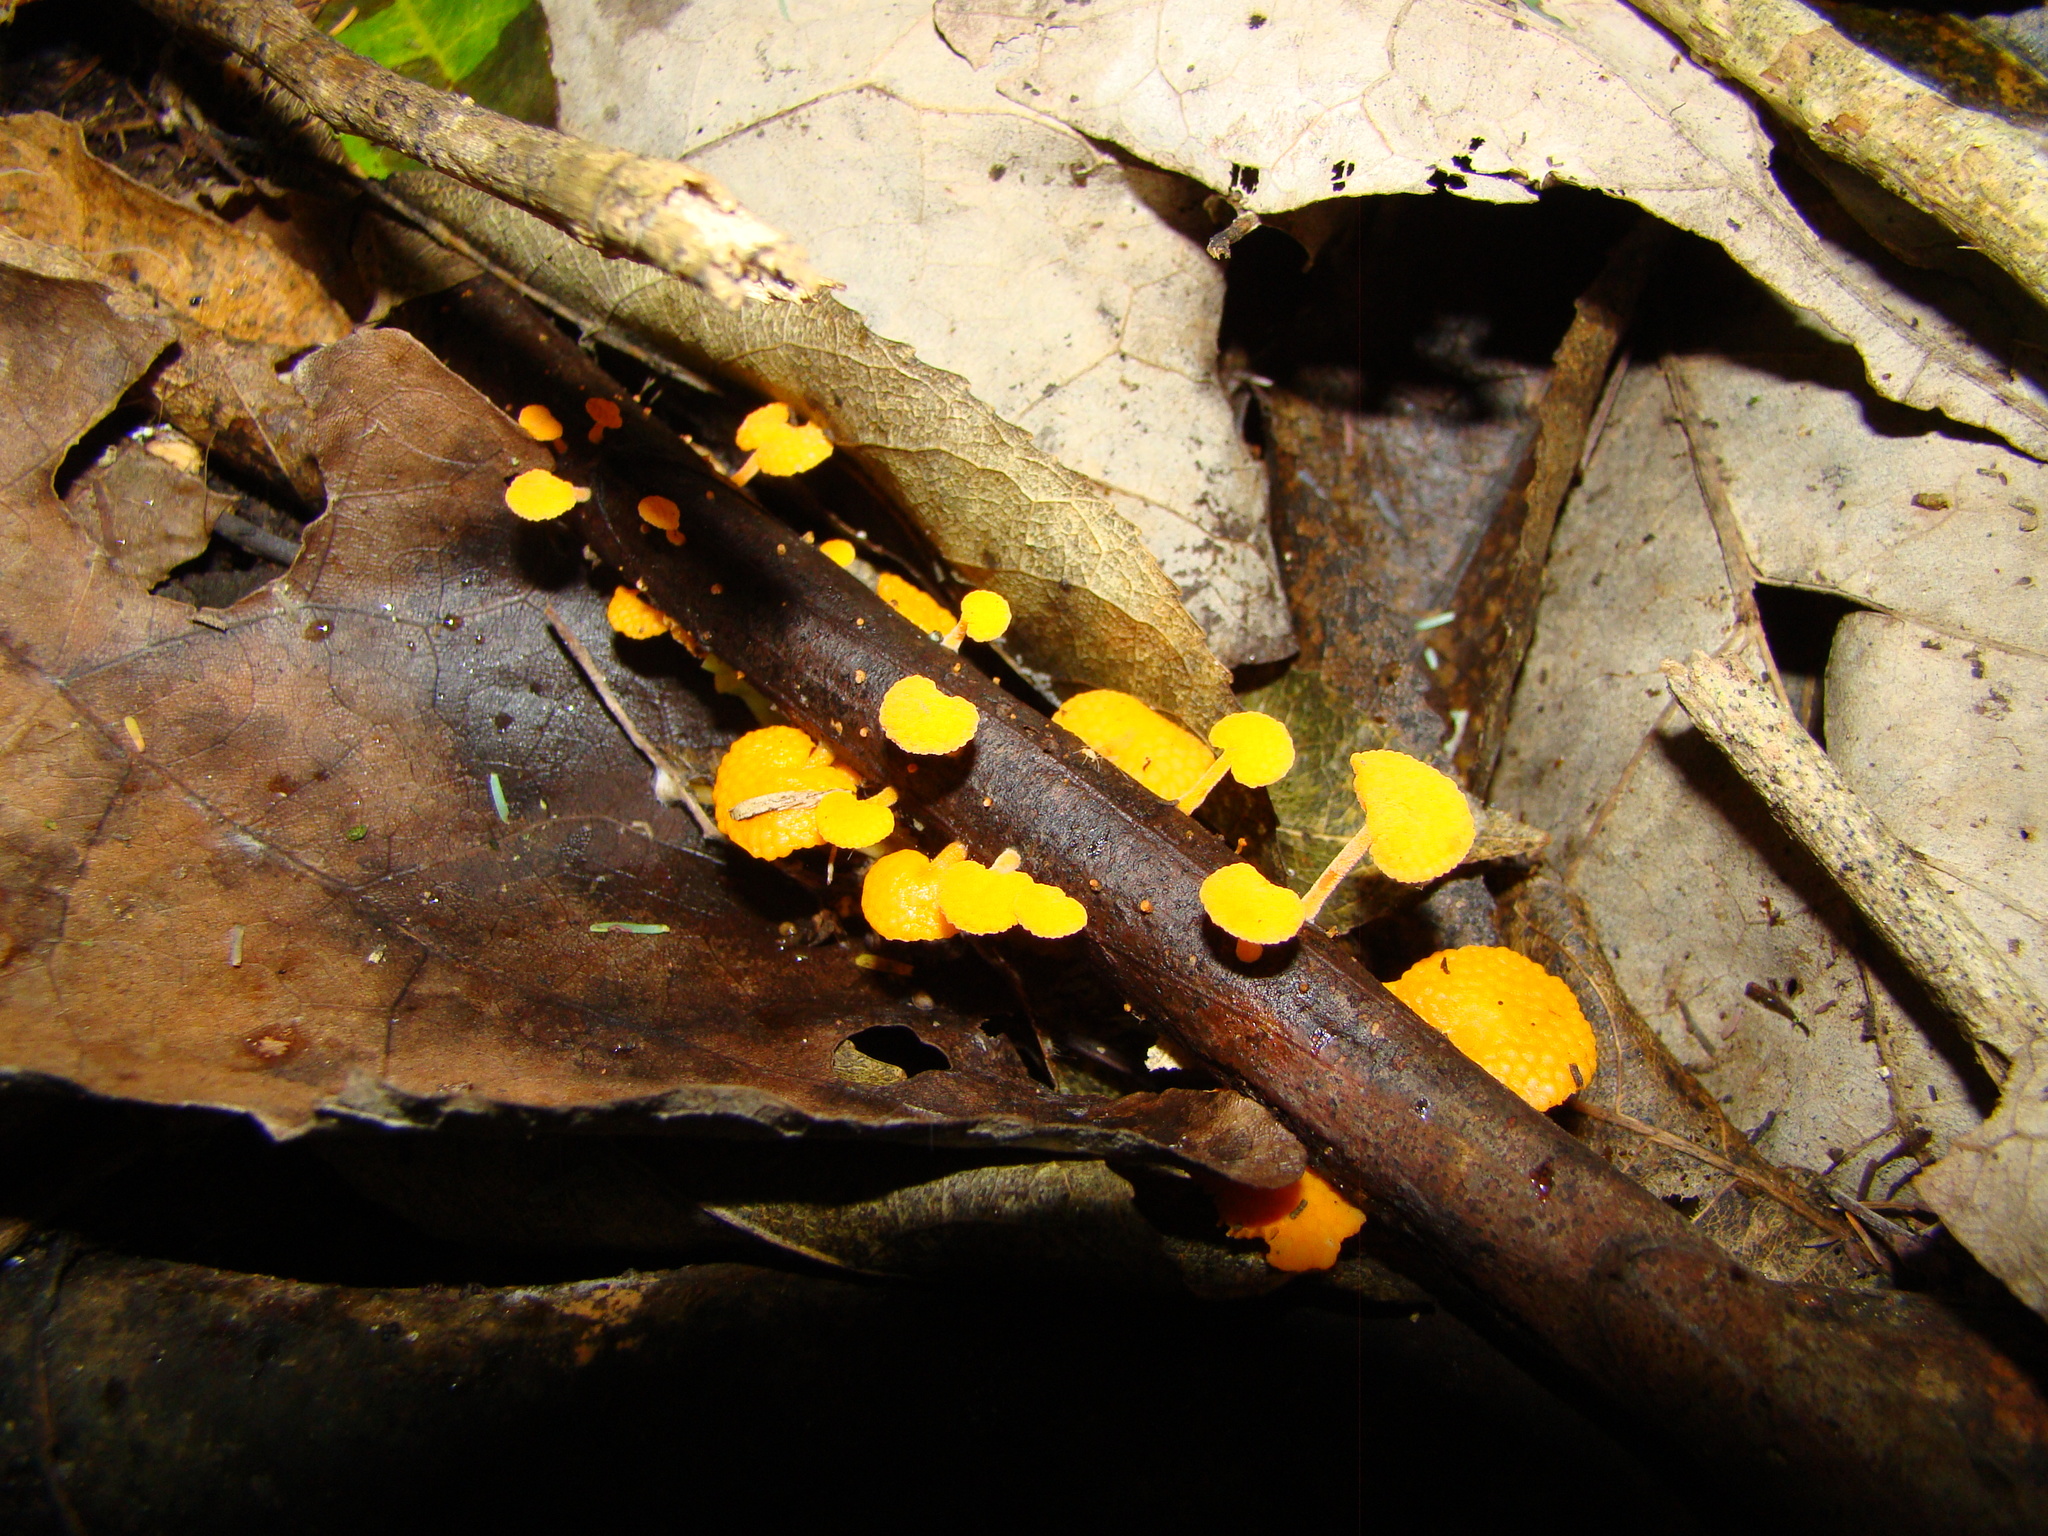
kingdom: Fungi
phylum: Basidiomycota
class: Agaricomycetes
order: Agaricales
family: Mycenaceae
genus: Favolaschia
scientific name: Favolaschia claudopus
